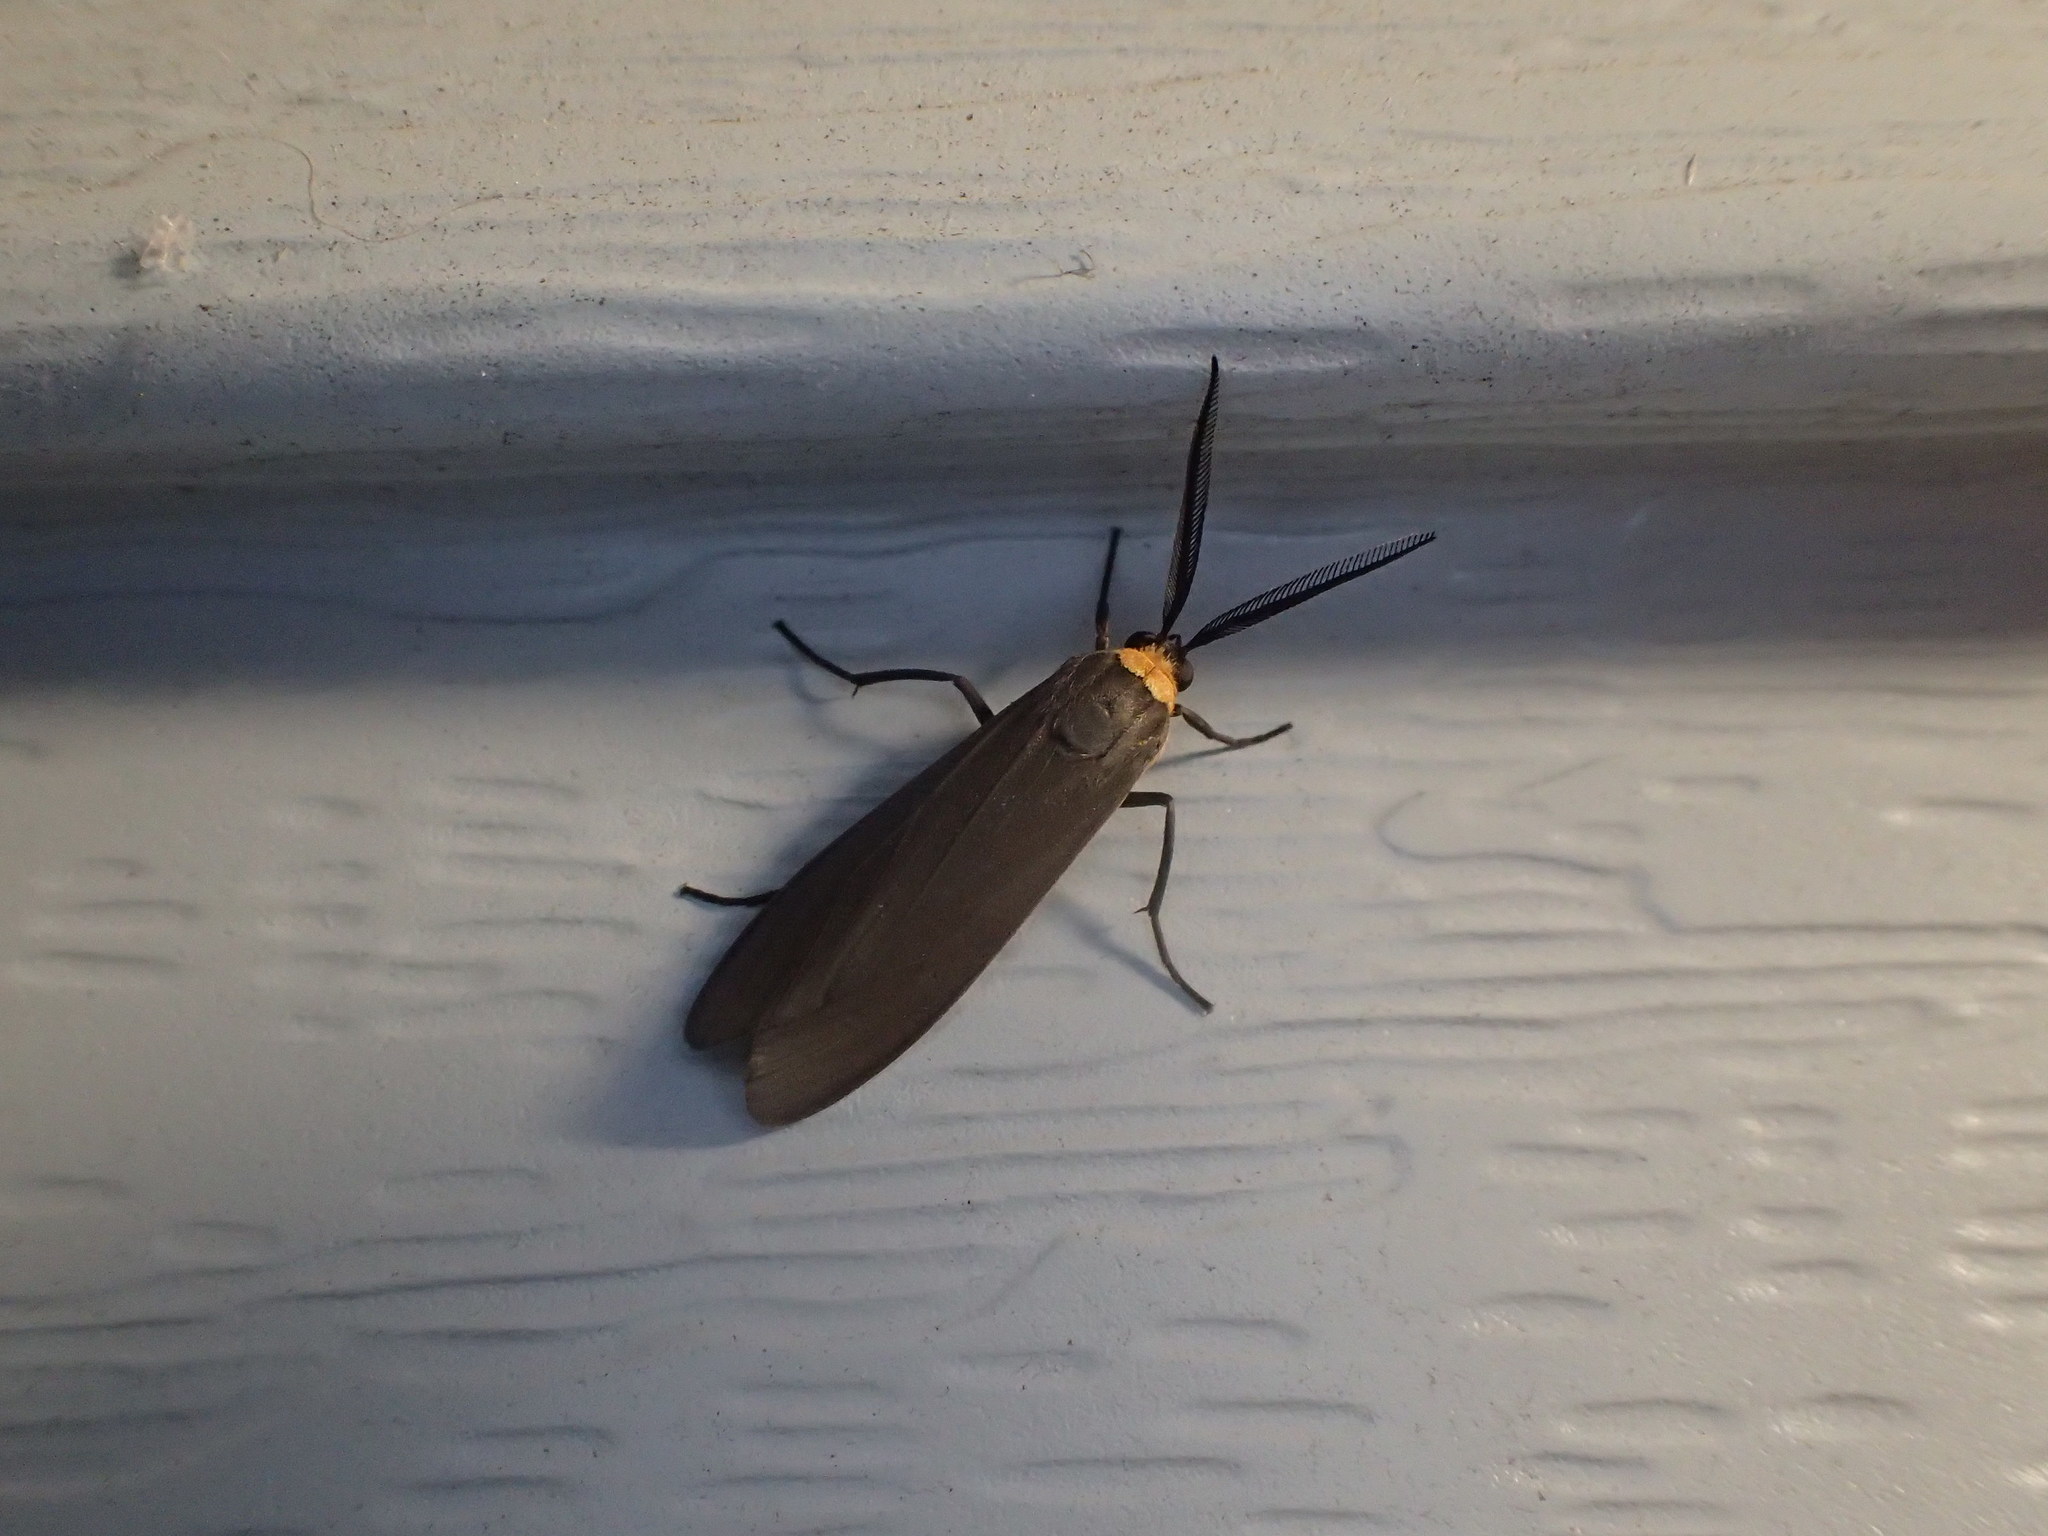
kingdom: Animalia
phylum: Arthropoda
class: Insecta
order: Lepidoptera
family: Erebidae
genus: Cisseps
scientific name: Cisseps fulvicollis
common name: Yellow-collared scape moth
